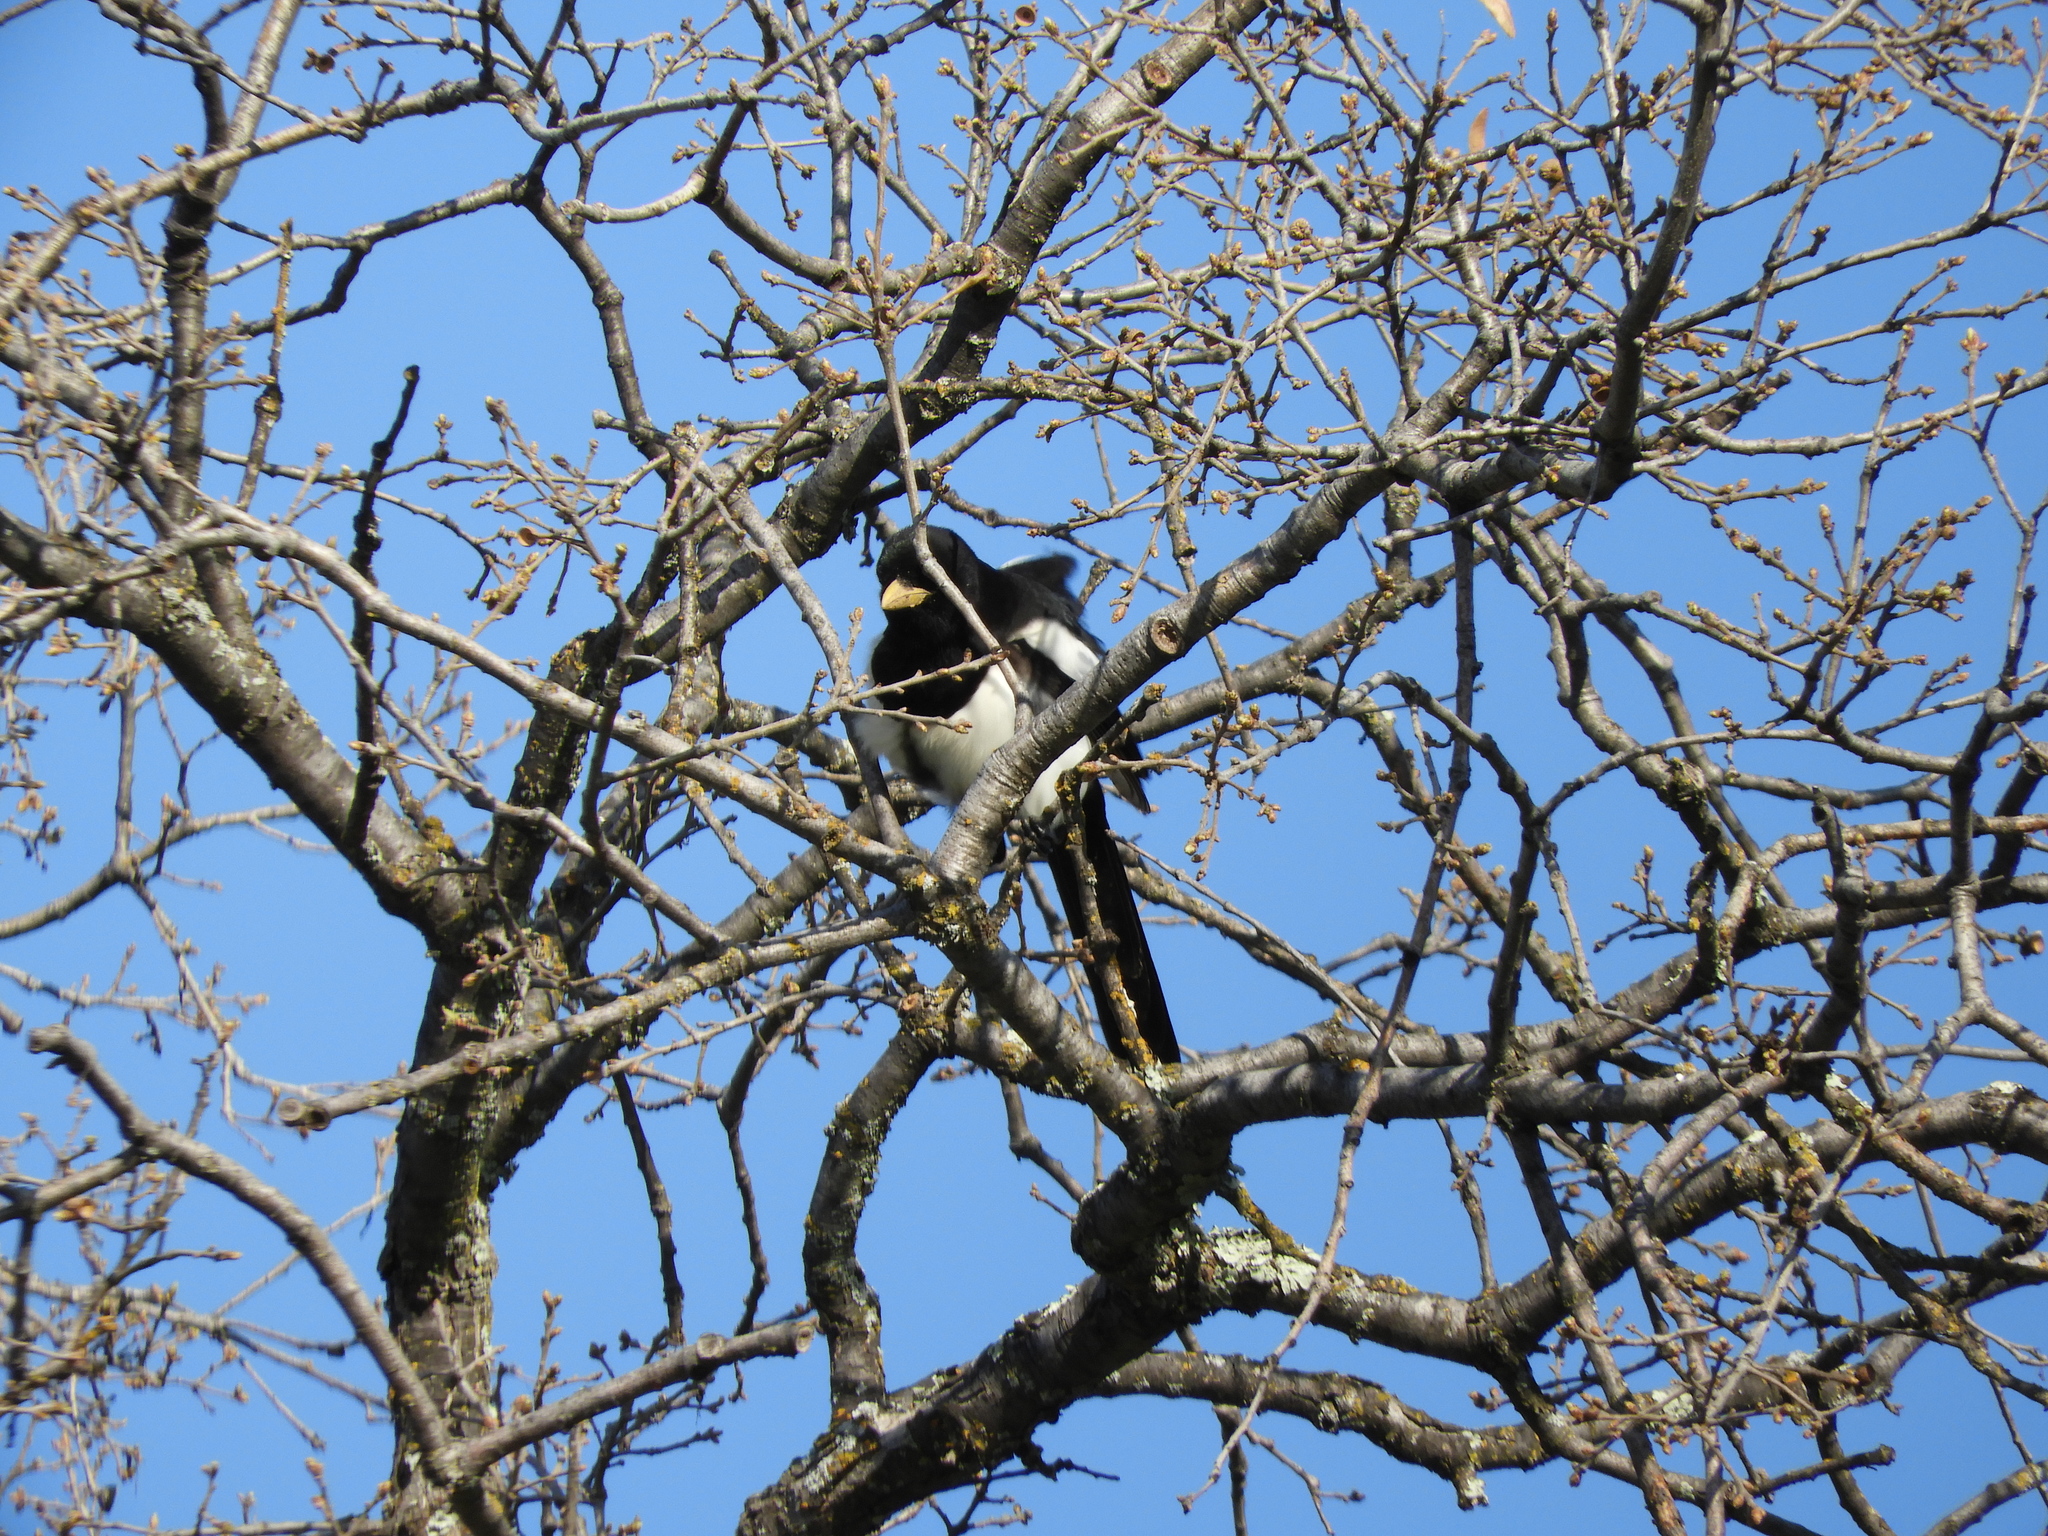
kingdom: Animalia
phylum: Chordata
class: Aves
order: Passeriformes
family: Corvidae
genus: Pica
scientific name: Pica nuttalli
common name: Yellow-billed magpie
